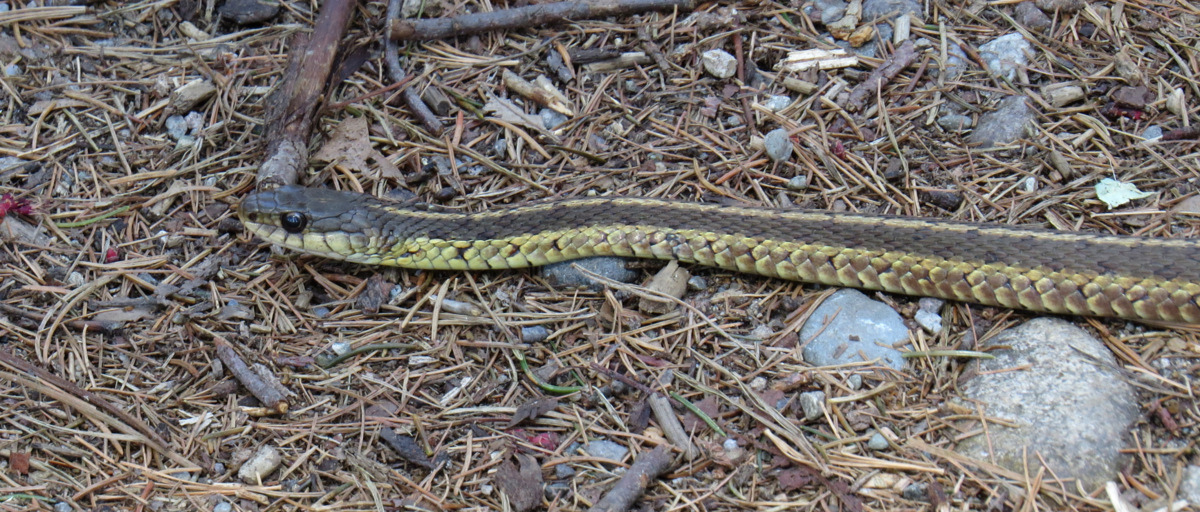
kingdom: Animalia
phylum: Chordata
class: Squamata
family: Colubridae
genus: Thamnophis
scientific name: Thamnophis sirtalis
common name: Common garter snake
